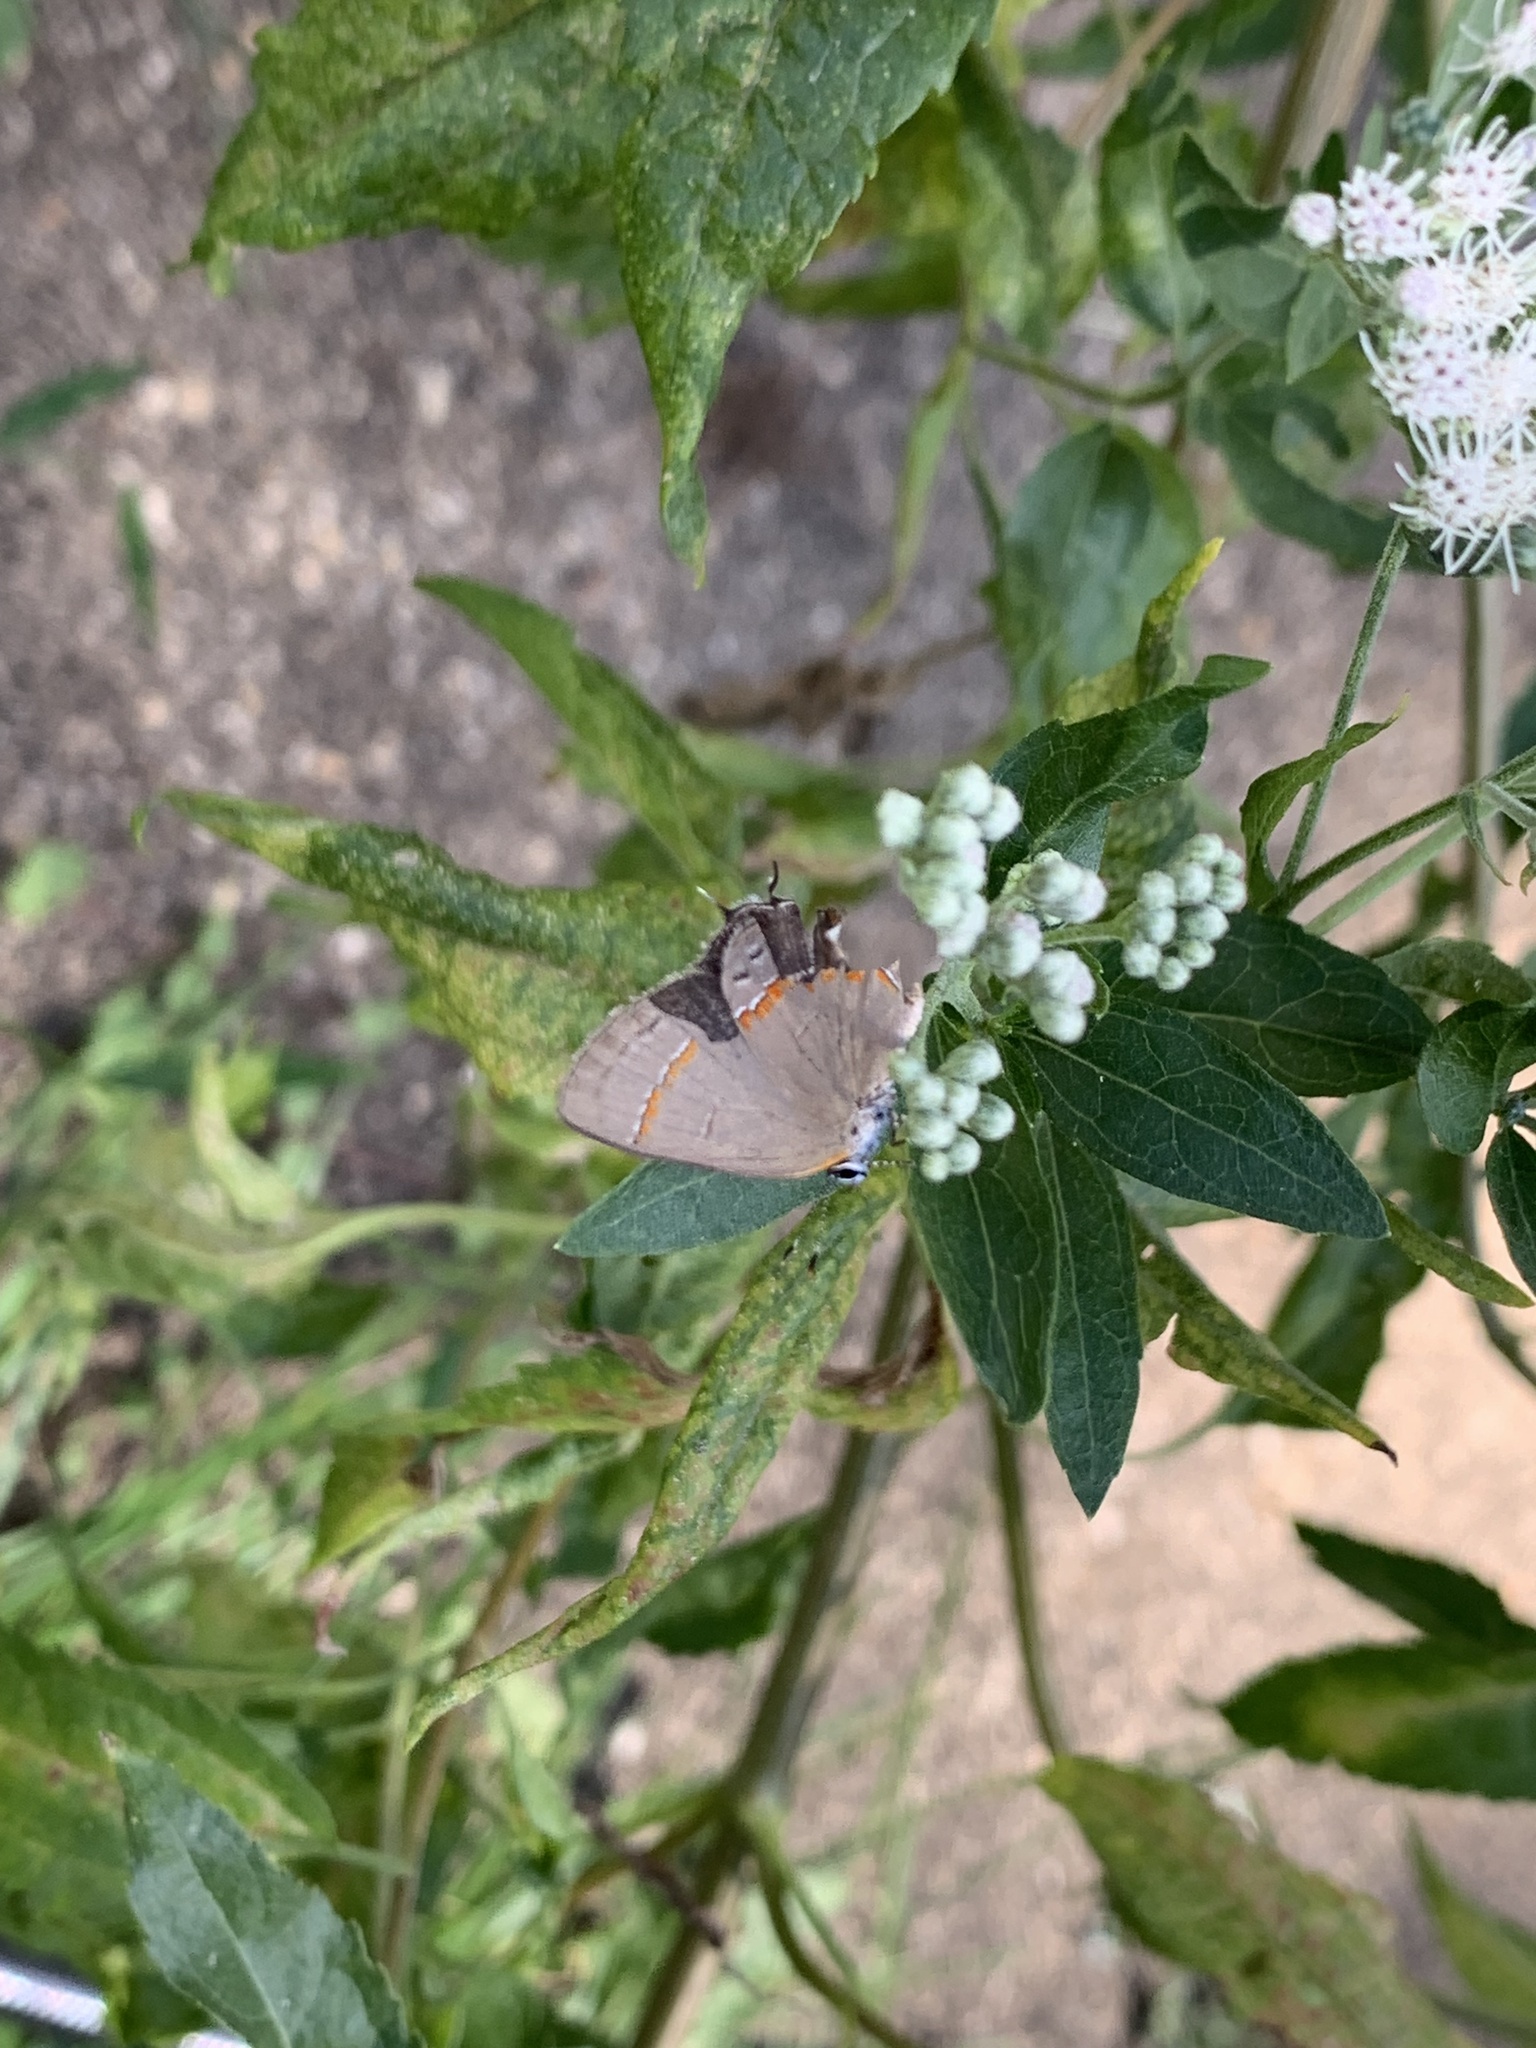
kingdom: Animalia
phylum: Arthropoda
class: Insecta
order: Lepidoptera
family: Lycaenidae
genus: Calycopis
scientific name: Calycopis cecrops
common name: Red-banded hairstreak
